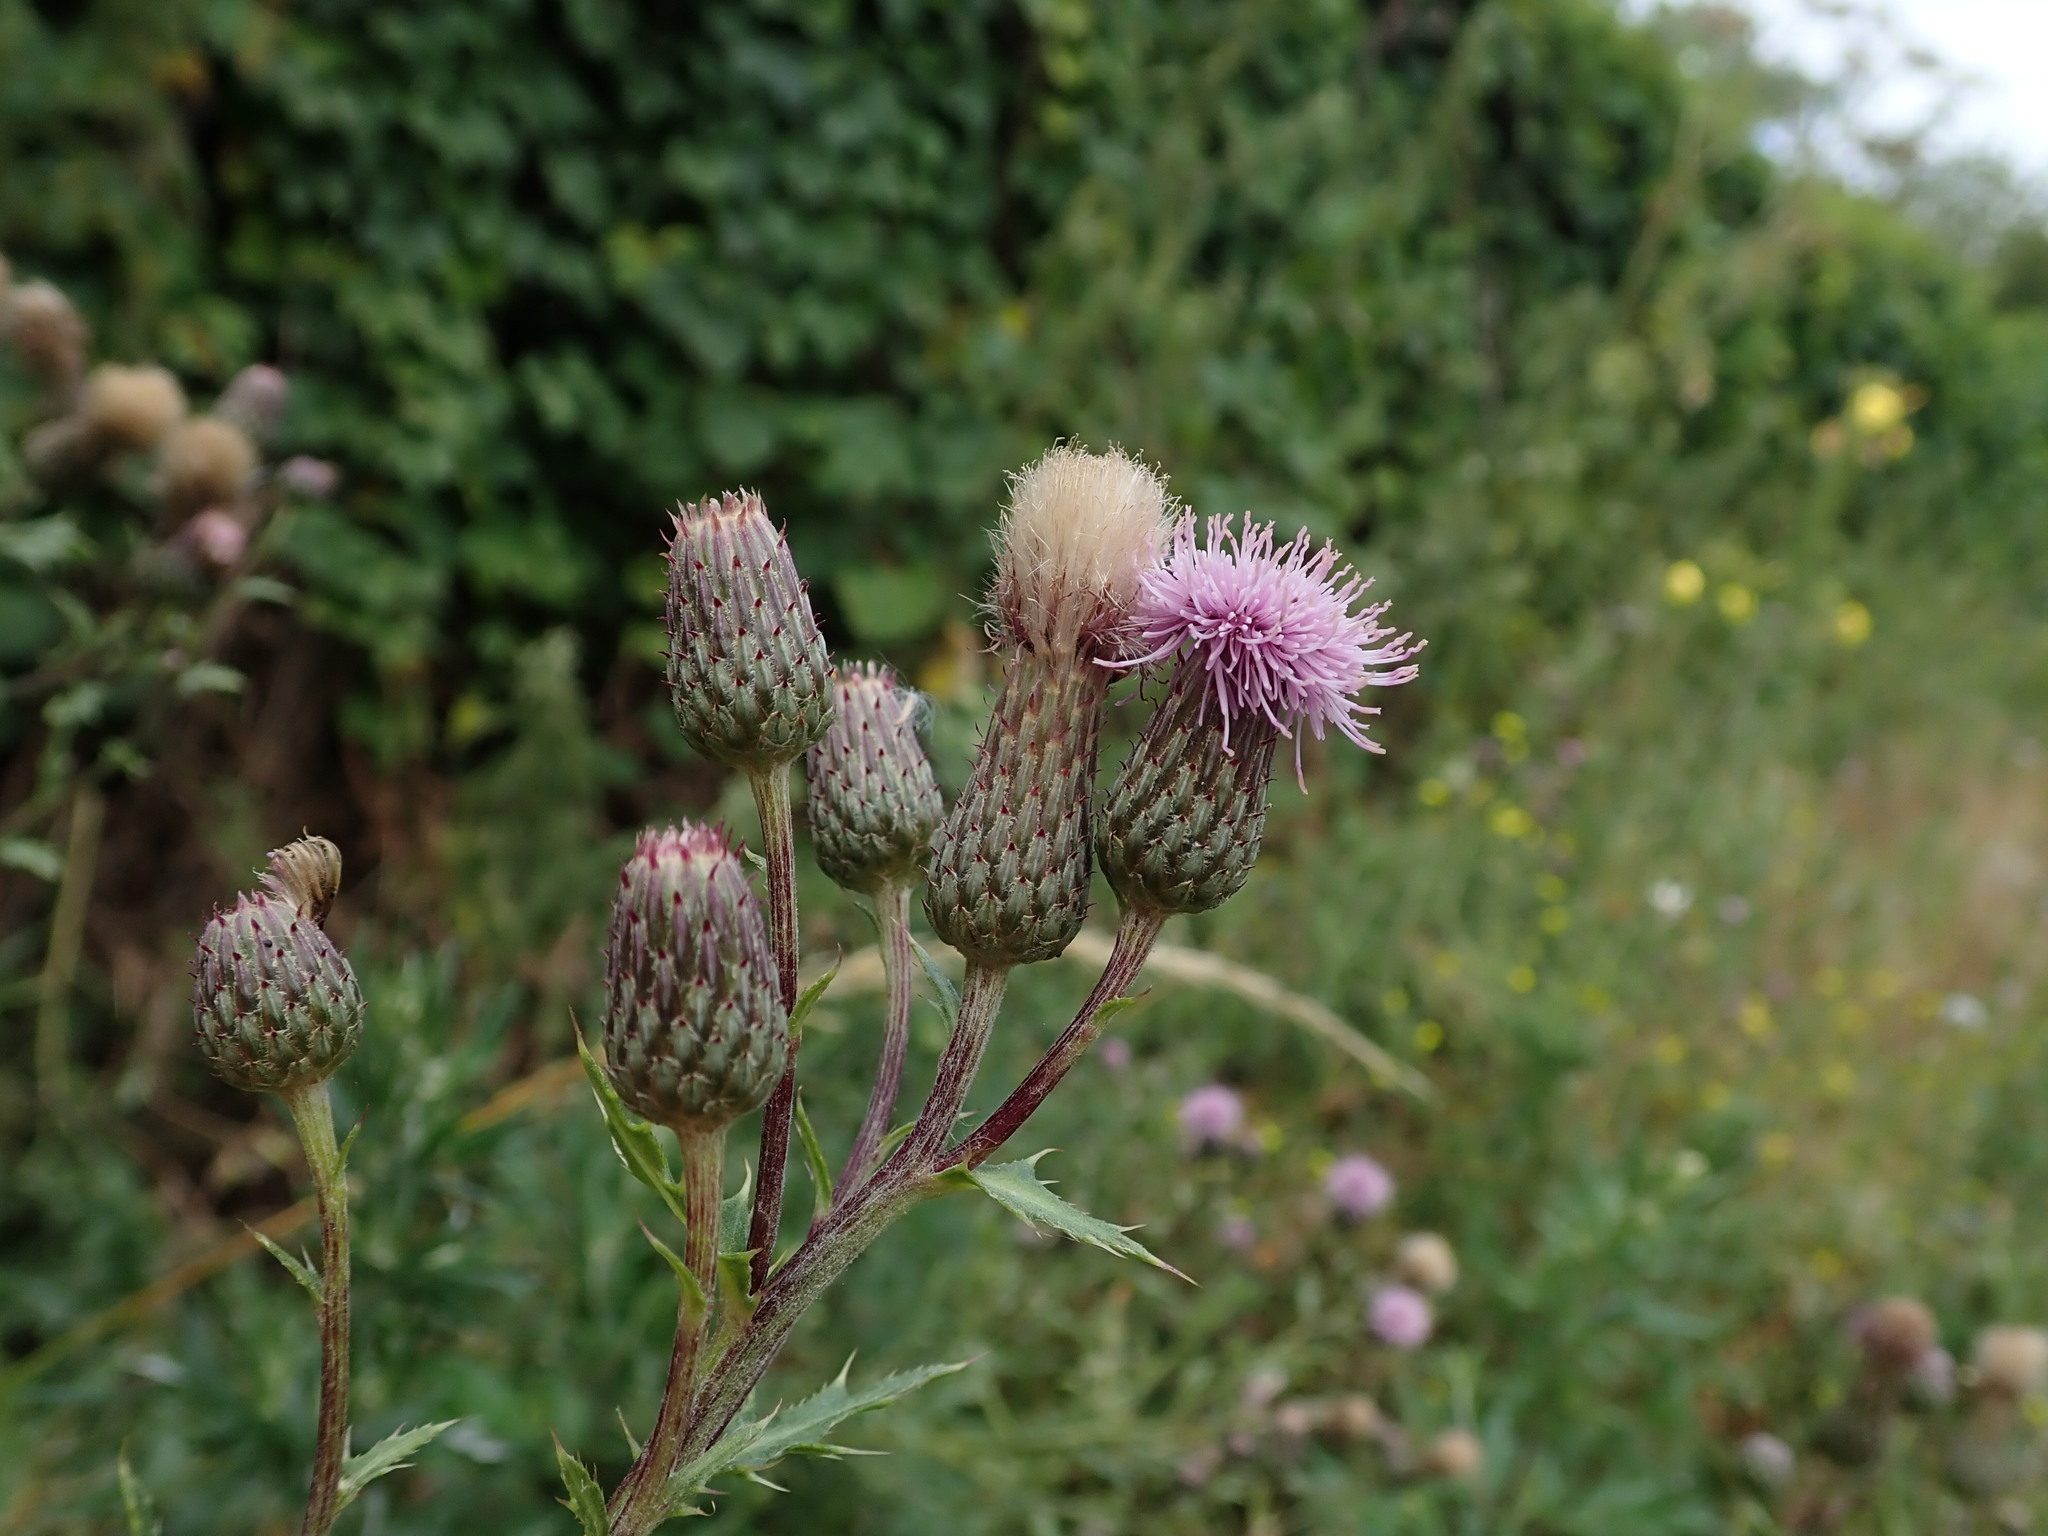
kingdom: Plantae
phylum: Tracheophyta
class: Magnoliopsida
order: Asterales
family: Asteraceae
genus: Cirsium
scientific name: Cirsium arvense
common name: Creeping thistle
